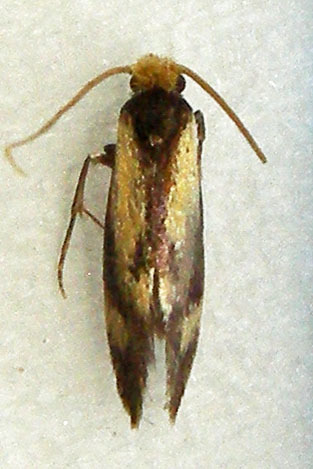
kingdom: Animalia
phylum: Arthropoda
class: Insecta
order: Lepidoptera
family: Meessiidae
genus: Isocorypha
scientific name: Isocorypha mediostriatella
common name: Old gold isocorypha moth
